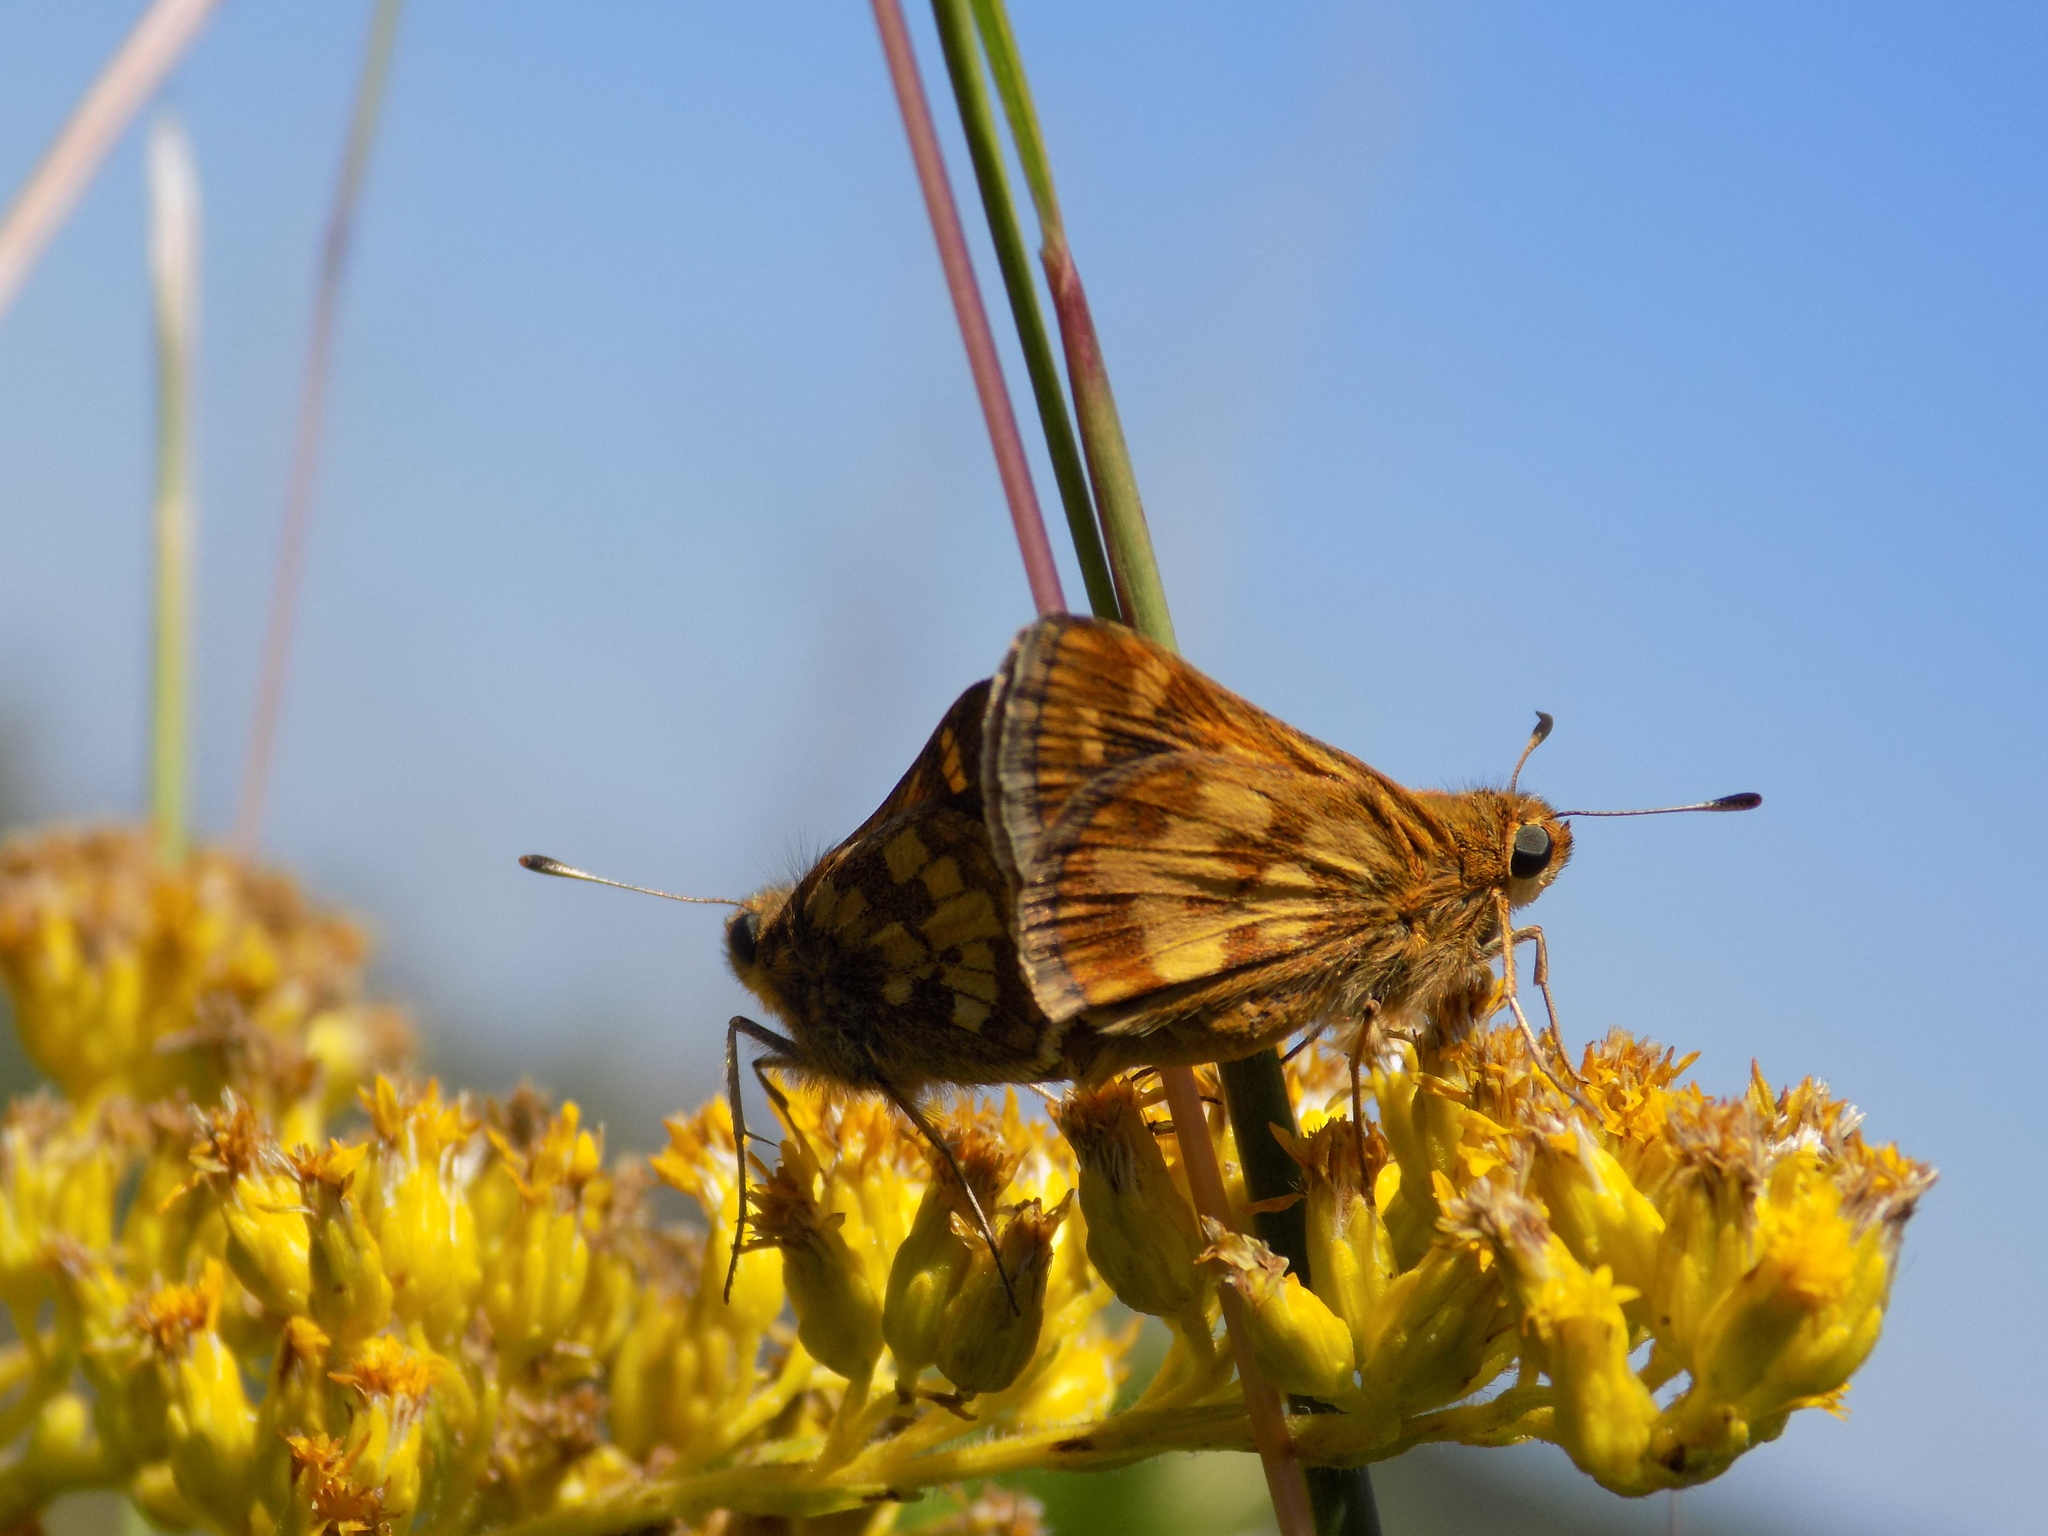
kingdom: Animalia
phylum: Arthropoda
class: Insecta
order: Lepidoptera
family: Hesperiidae
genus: Polites
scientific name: Polites coras
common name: Peck's skipper
